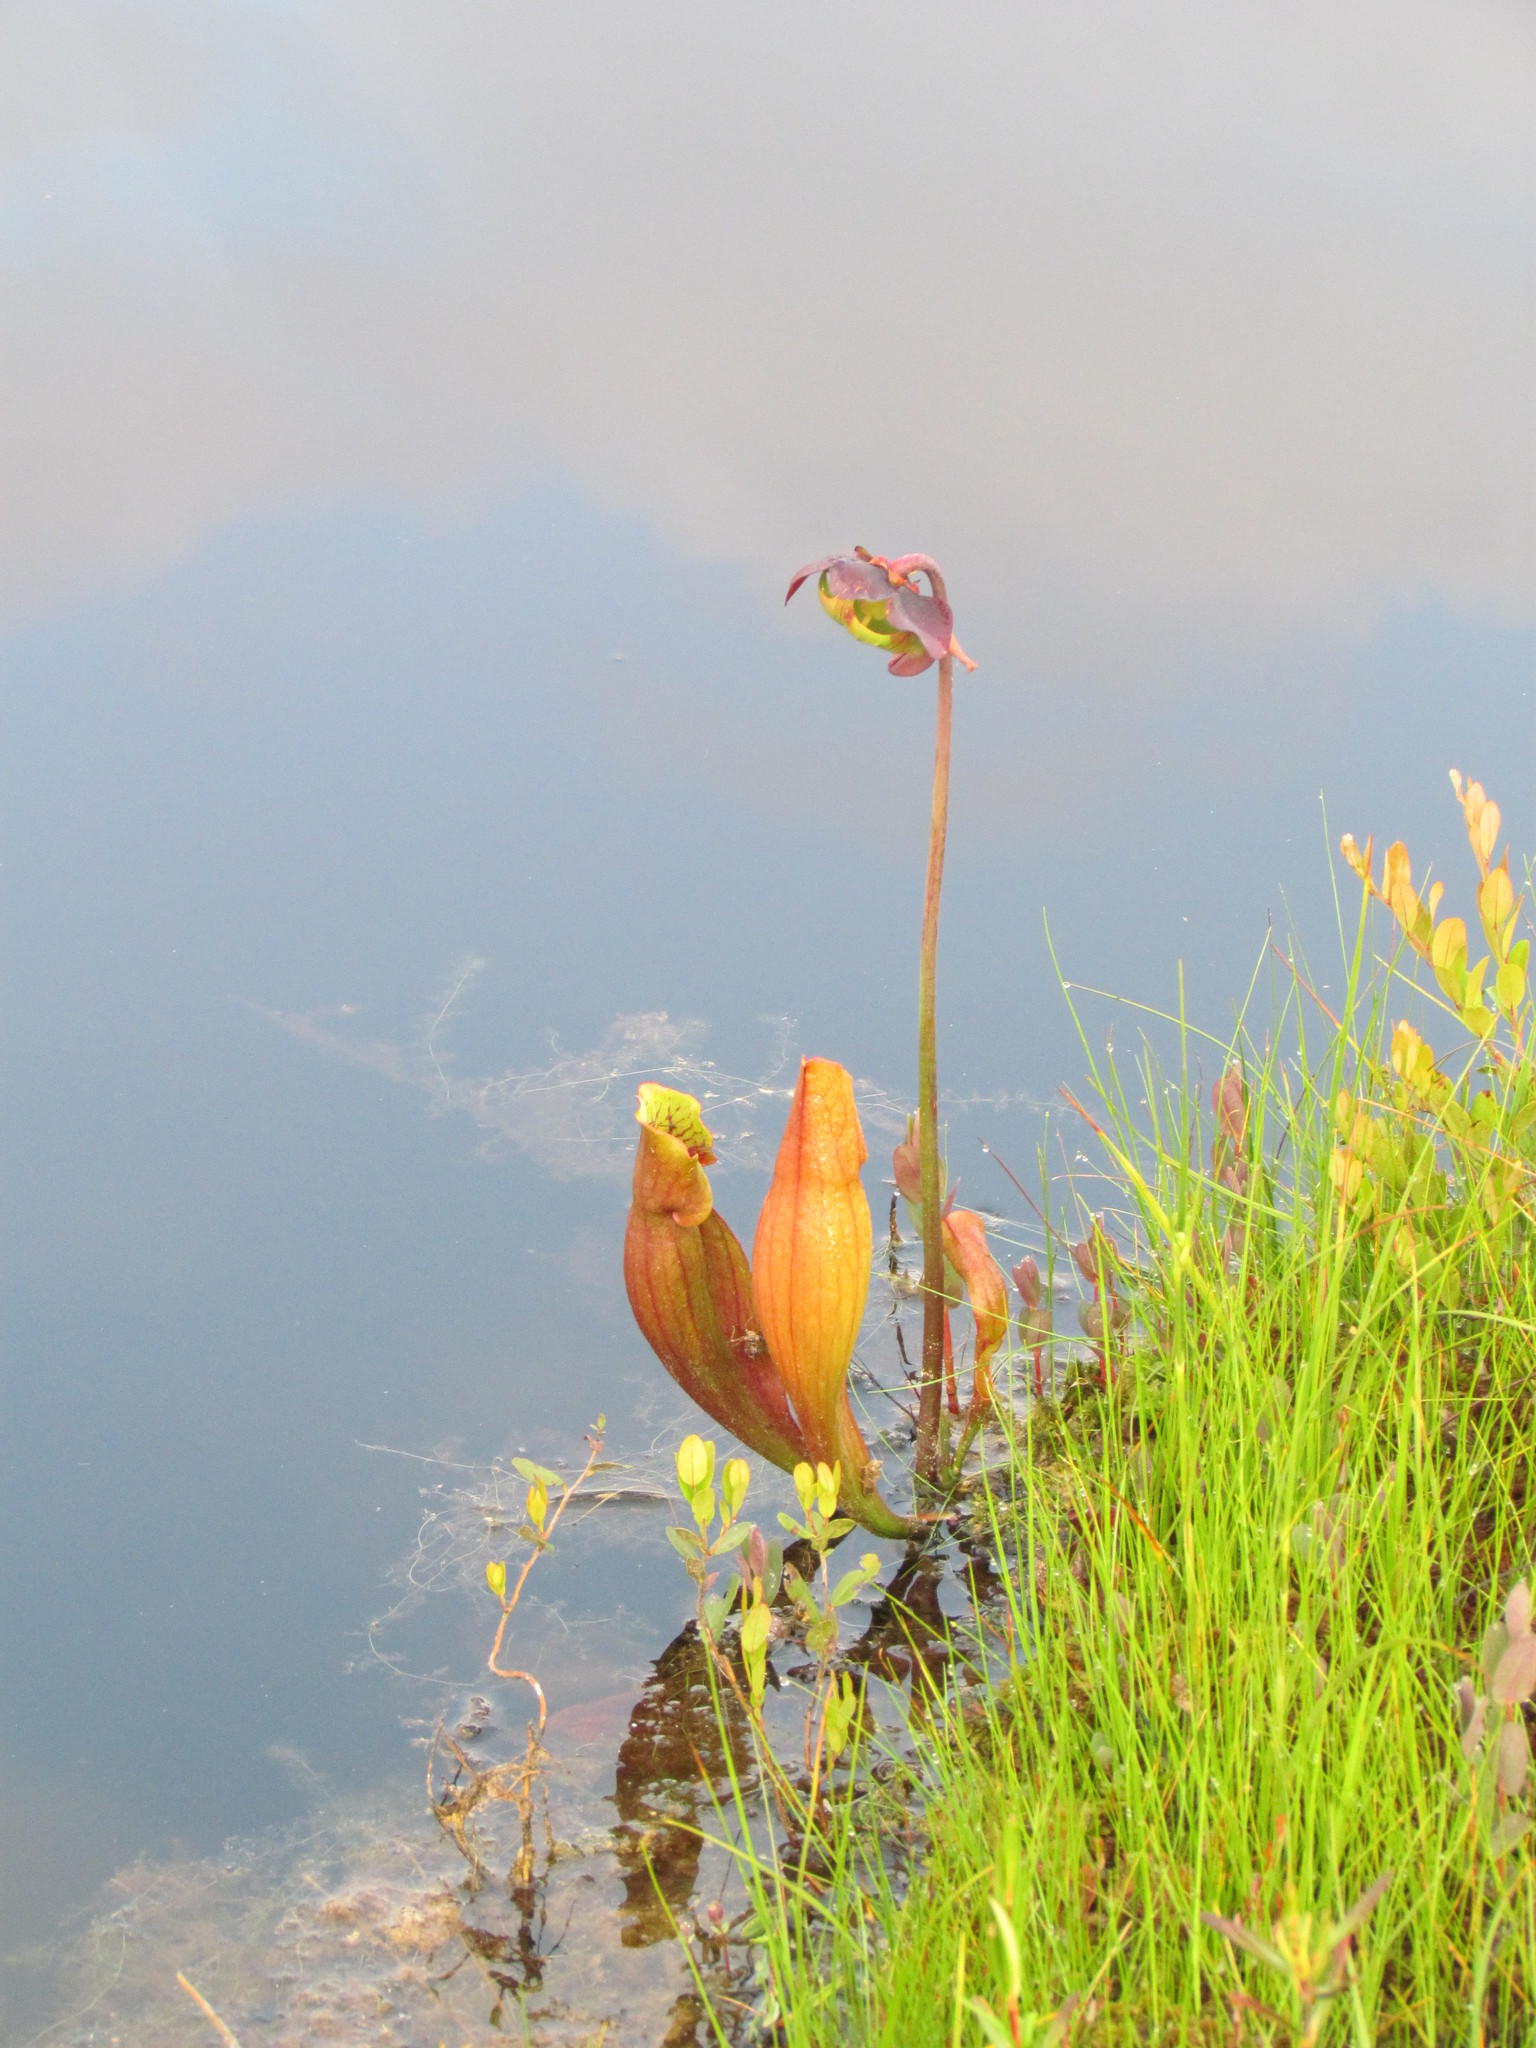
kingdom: Plantae
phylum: Tracheophyta
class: Magnoliopsida
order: Ericales
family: Sarraceniaceae
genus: Sarracenia
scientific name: Sarracenia purpurea
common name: Pitcherplant
